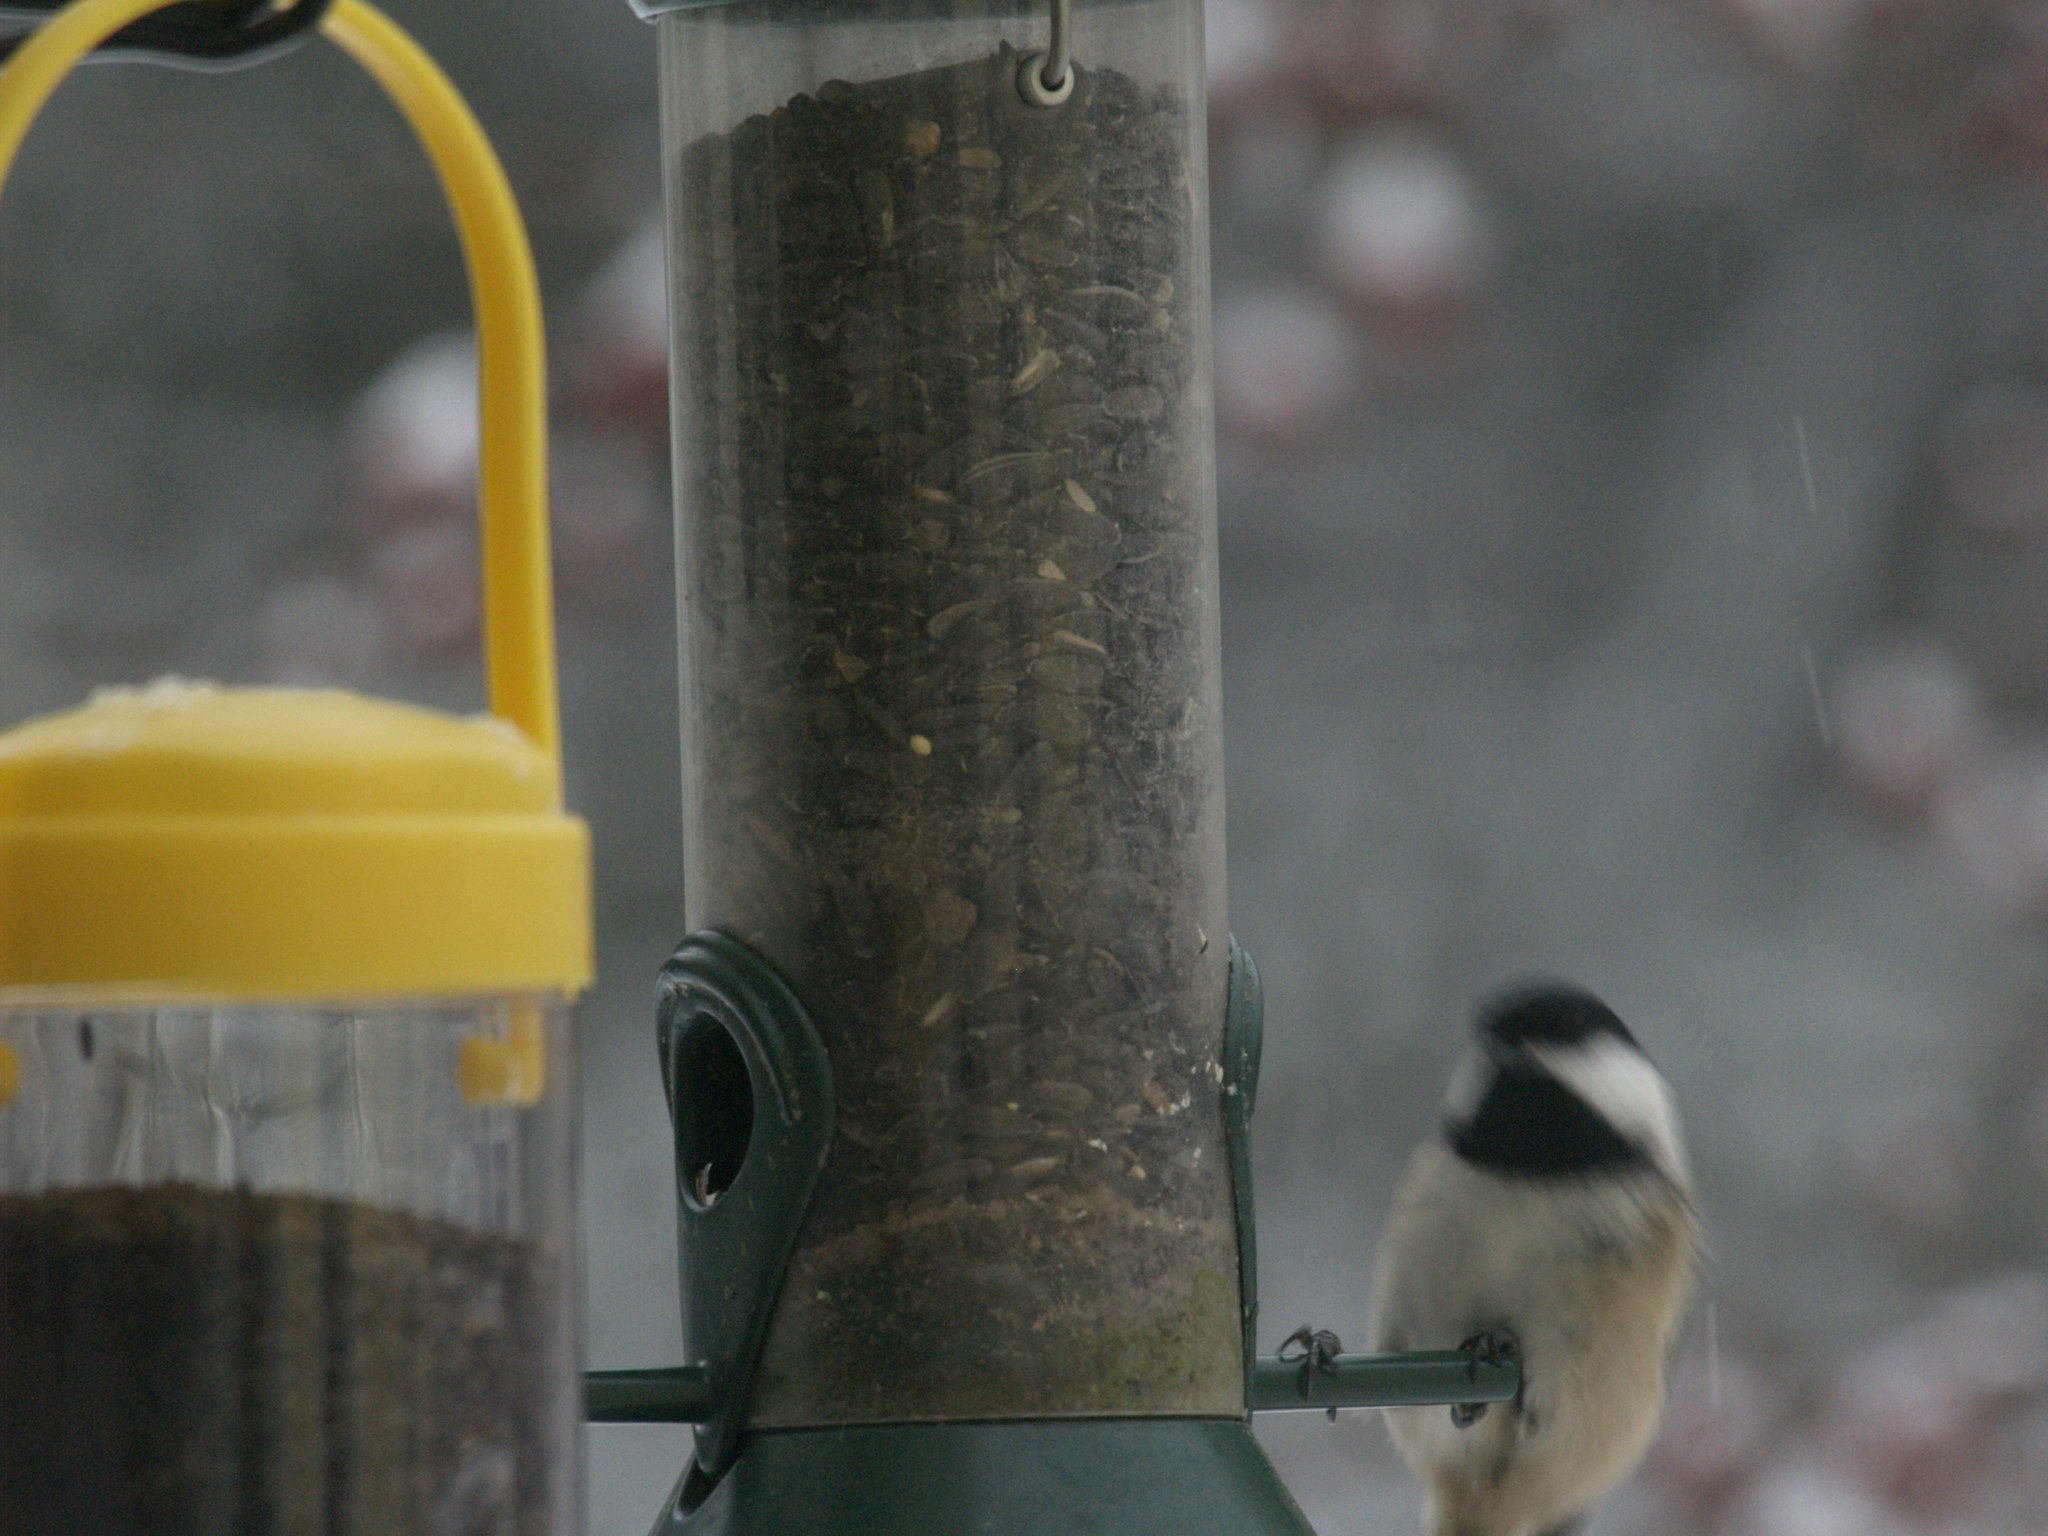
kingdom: Animalia
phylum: Chordata
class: Aves
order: Passeriformes
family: Paridae
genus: Poecile
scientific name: Poecile atricapillus
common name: Black-capped chickadee
